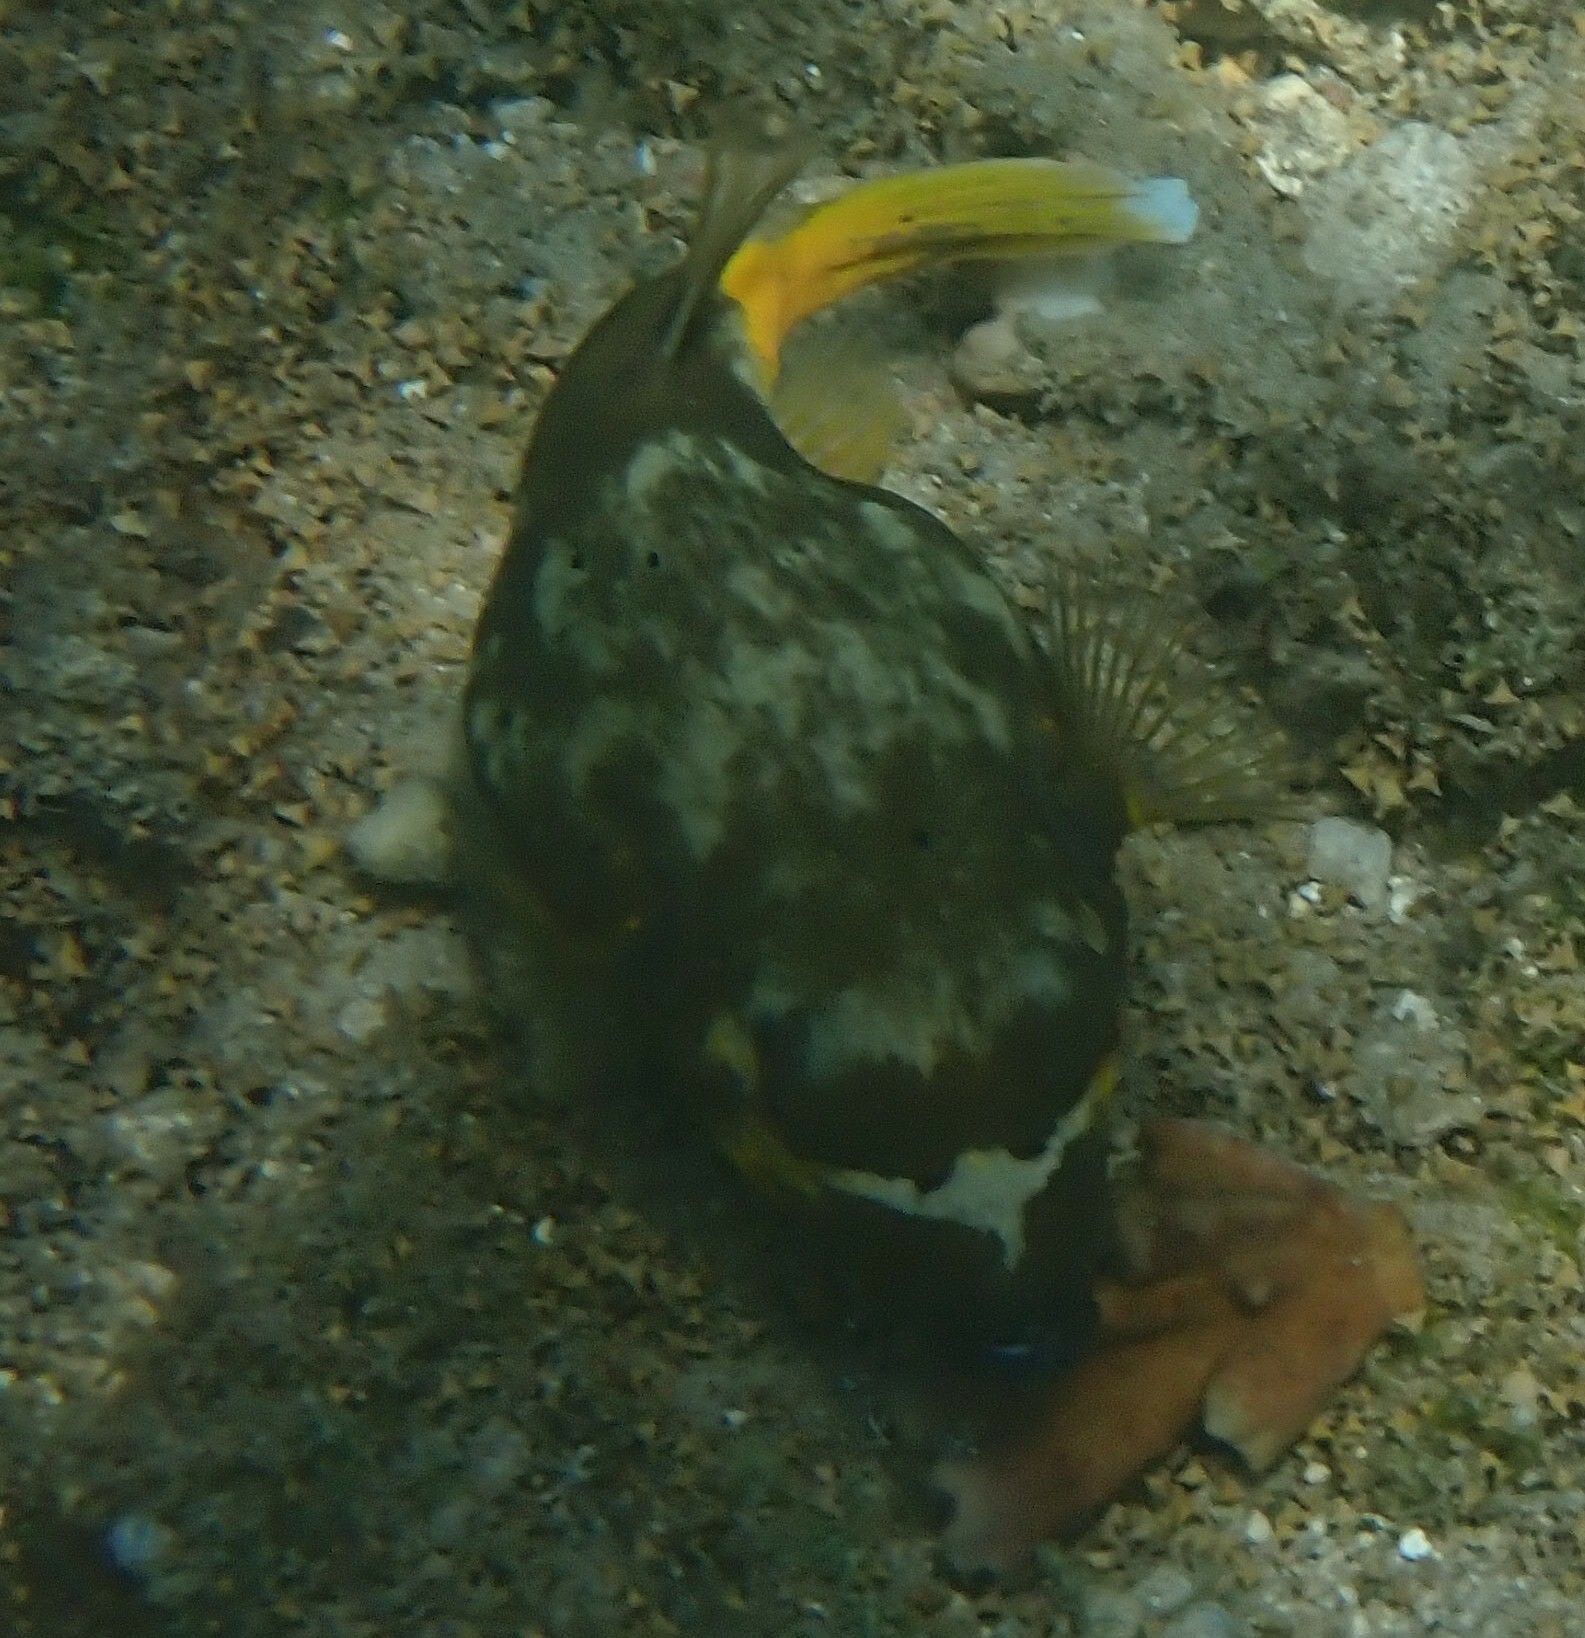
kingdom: Animalia
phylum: Chordata
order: Tetraodontiformes
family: Tetraodontidae
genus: Arothron
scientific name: Arothron nigropunctatus
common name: Black spotted blow fish
